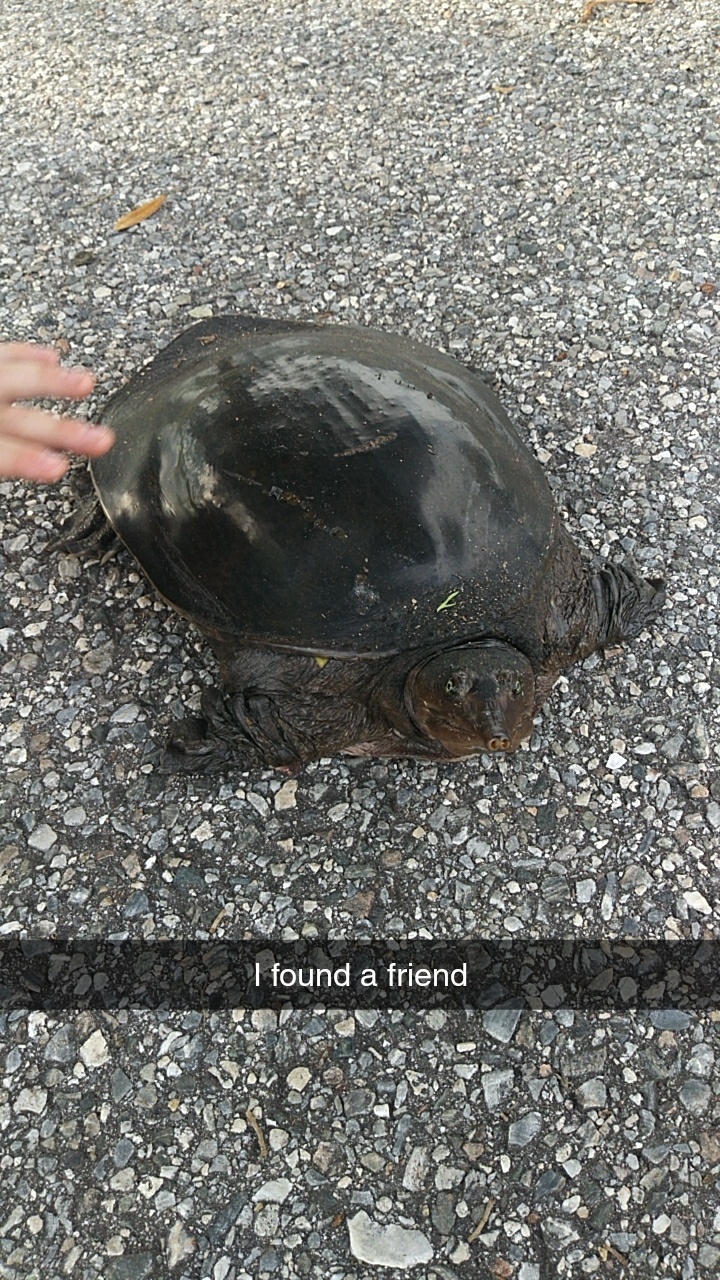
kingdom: Animalia
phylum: Chordata
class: Testudines
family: Trionychidae
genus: Apalone
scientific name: Apalone ferox
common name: Florida softshell turtle
